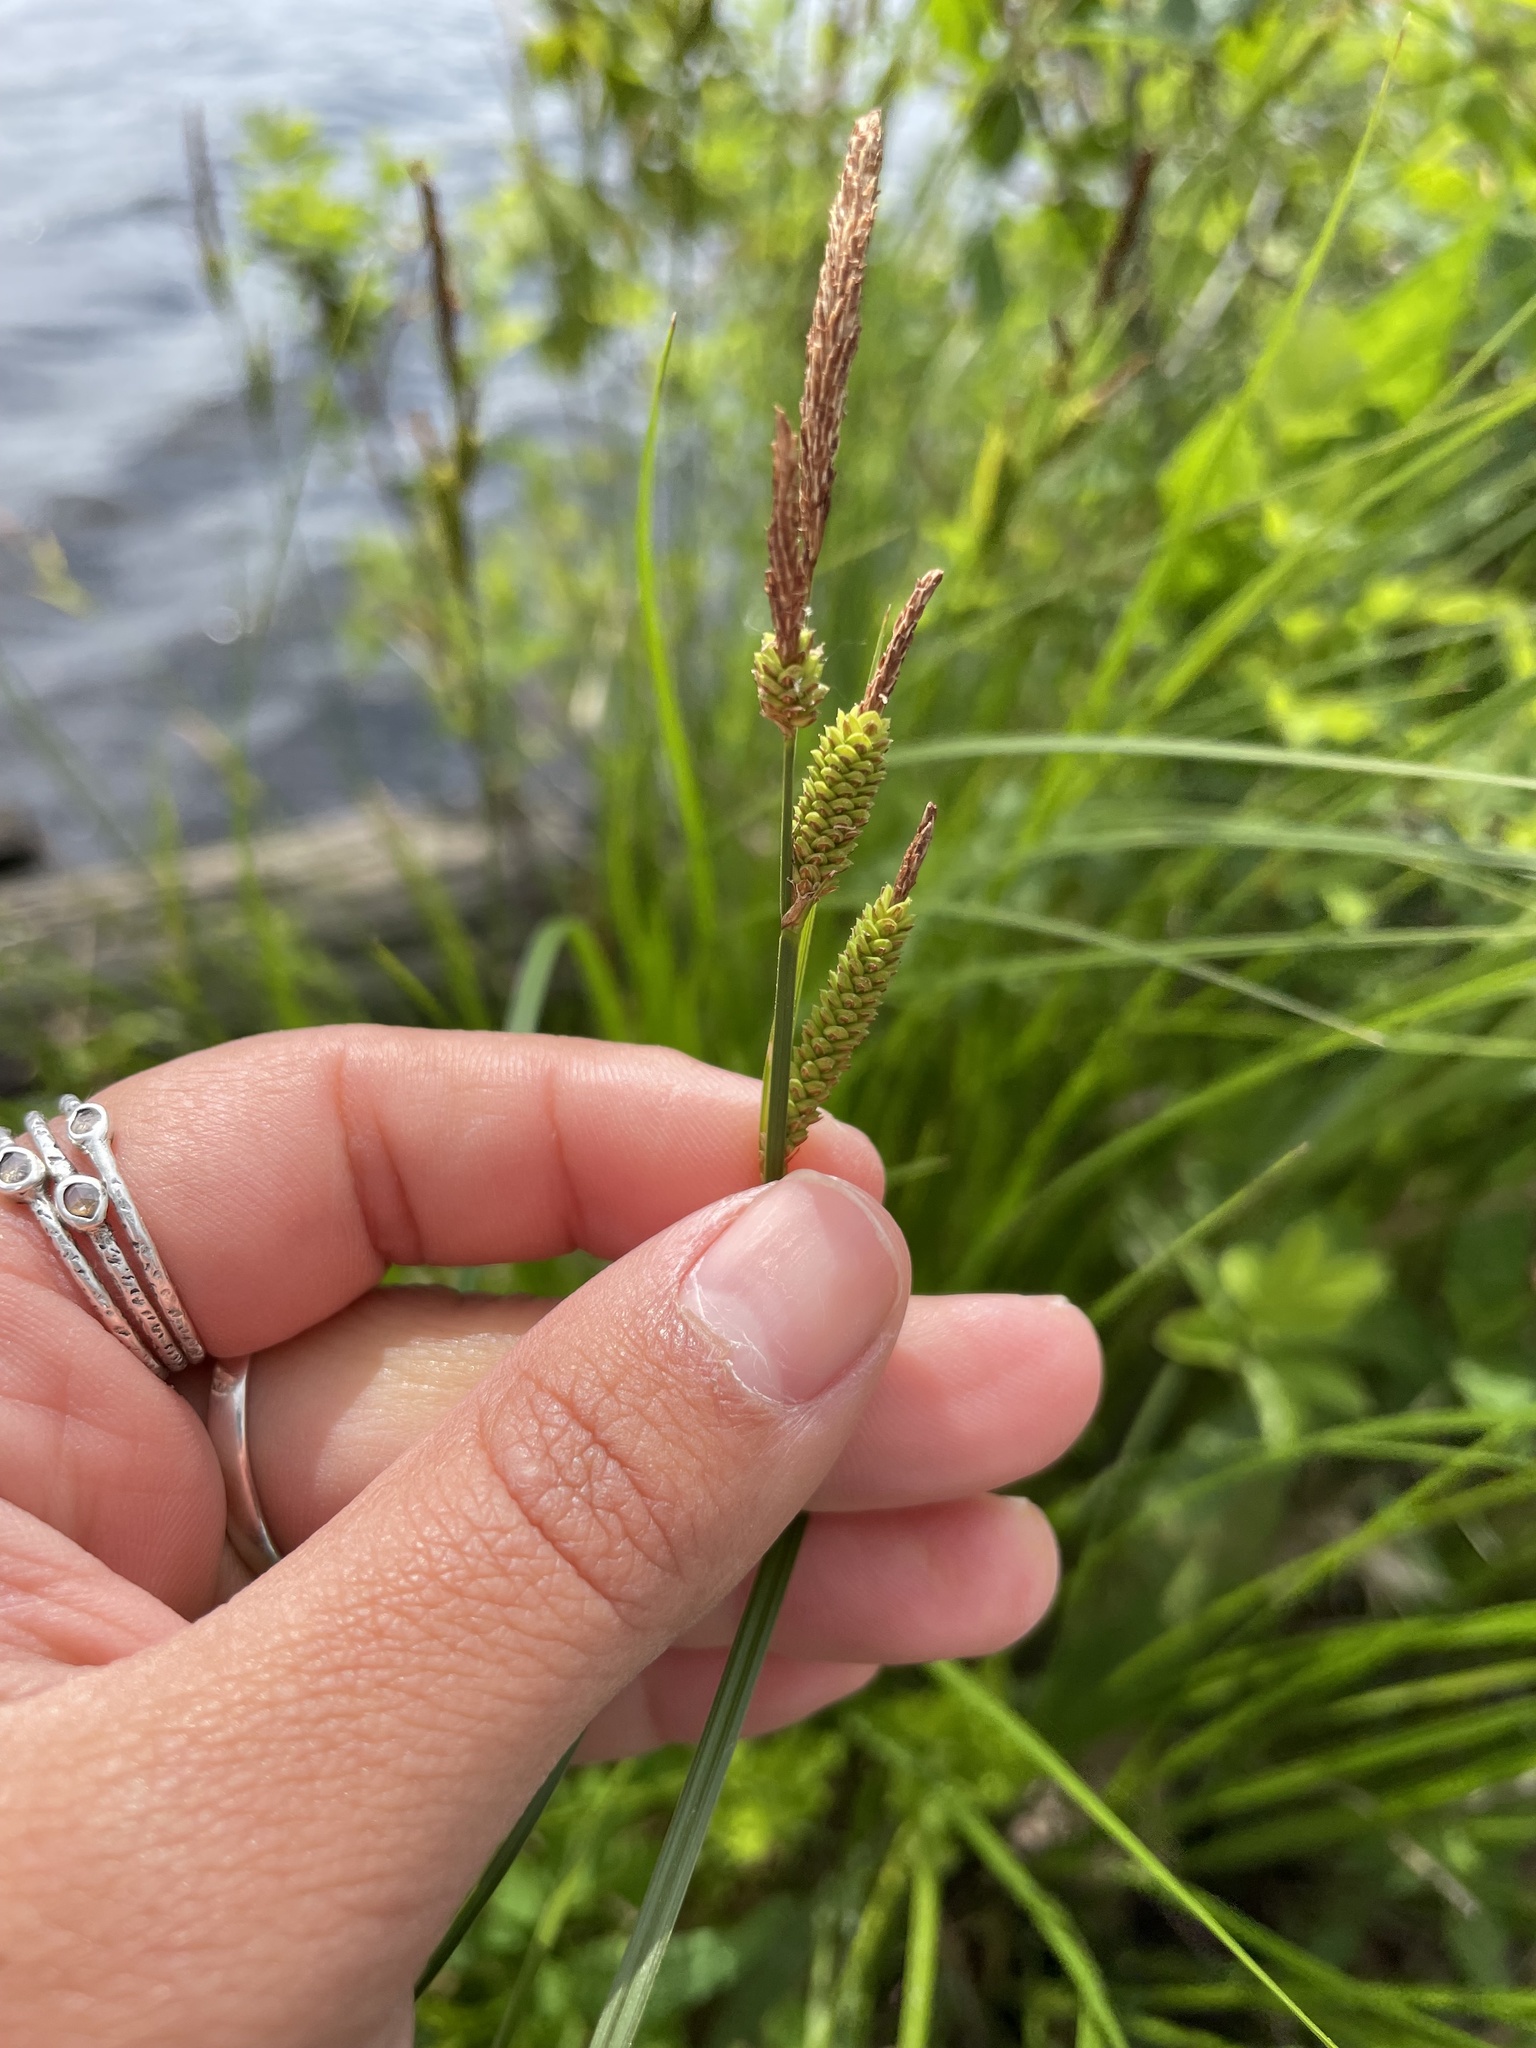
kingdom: Plantae
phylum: Tracheophyta
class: Liliopsida
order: Poales
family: Cyperaceae
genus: Carex
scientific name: Carex stricta
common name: Hummock sedge
